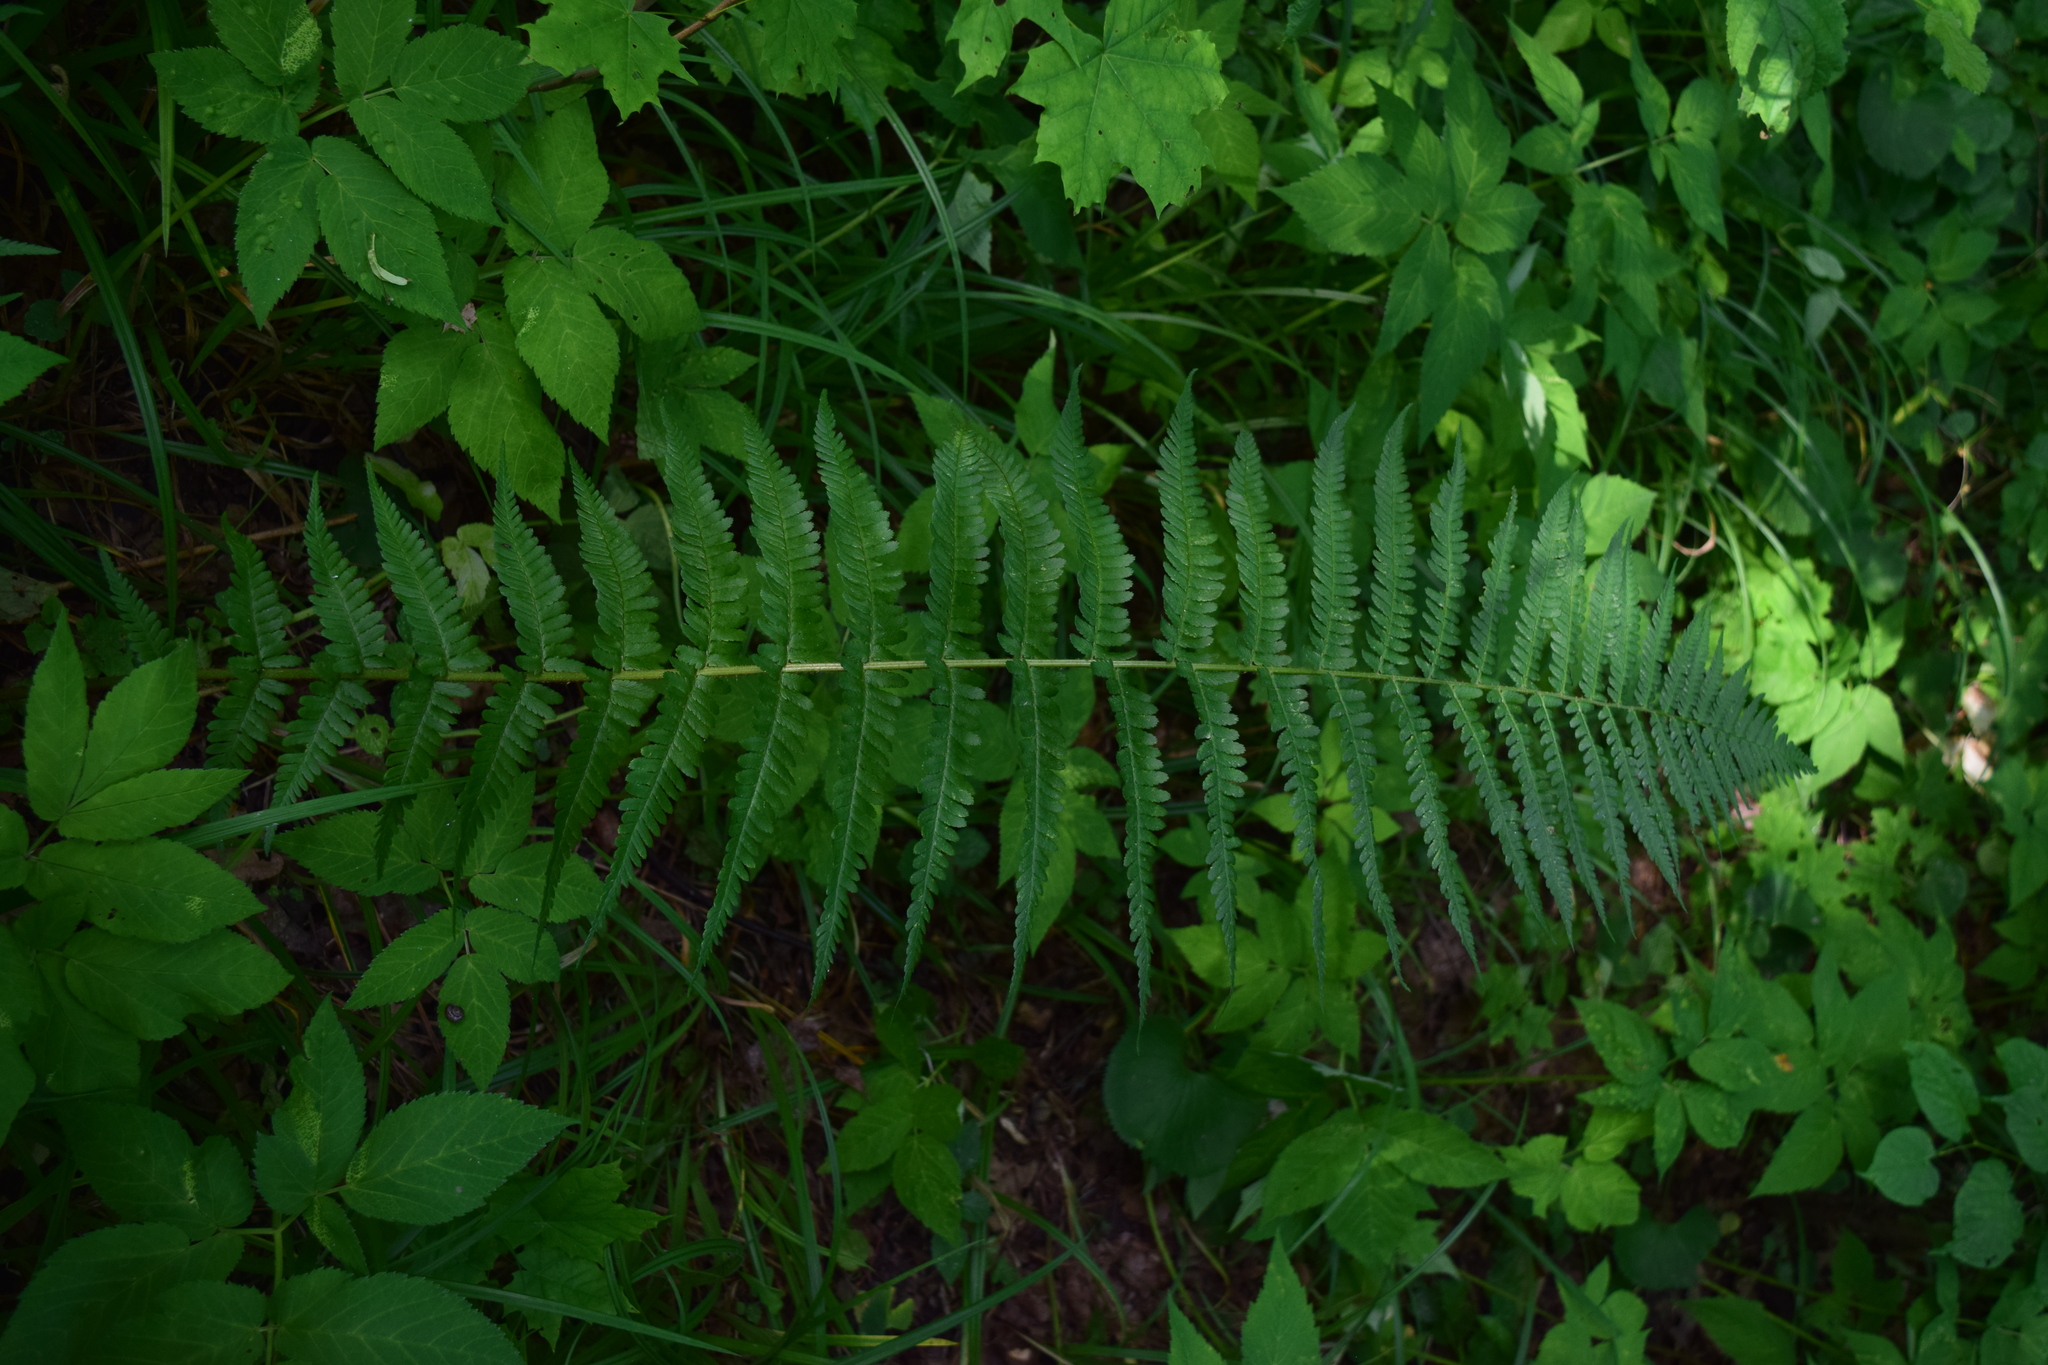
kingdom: Plantae
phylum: Tracheophyta
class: Polypodiopsida
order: Polypodiales
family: Dryopteridaceae
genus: Dryopteris
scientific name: Dryopteris filix-mas
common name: Male fern
